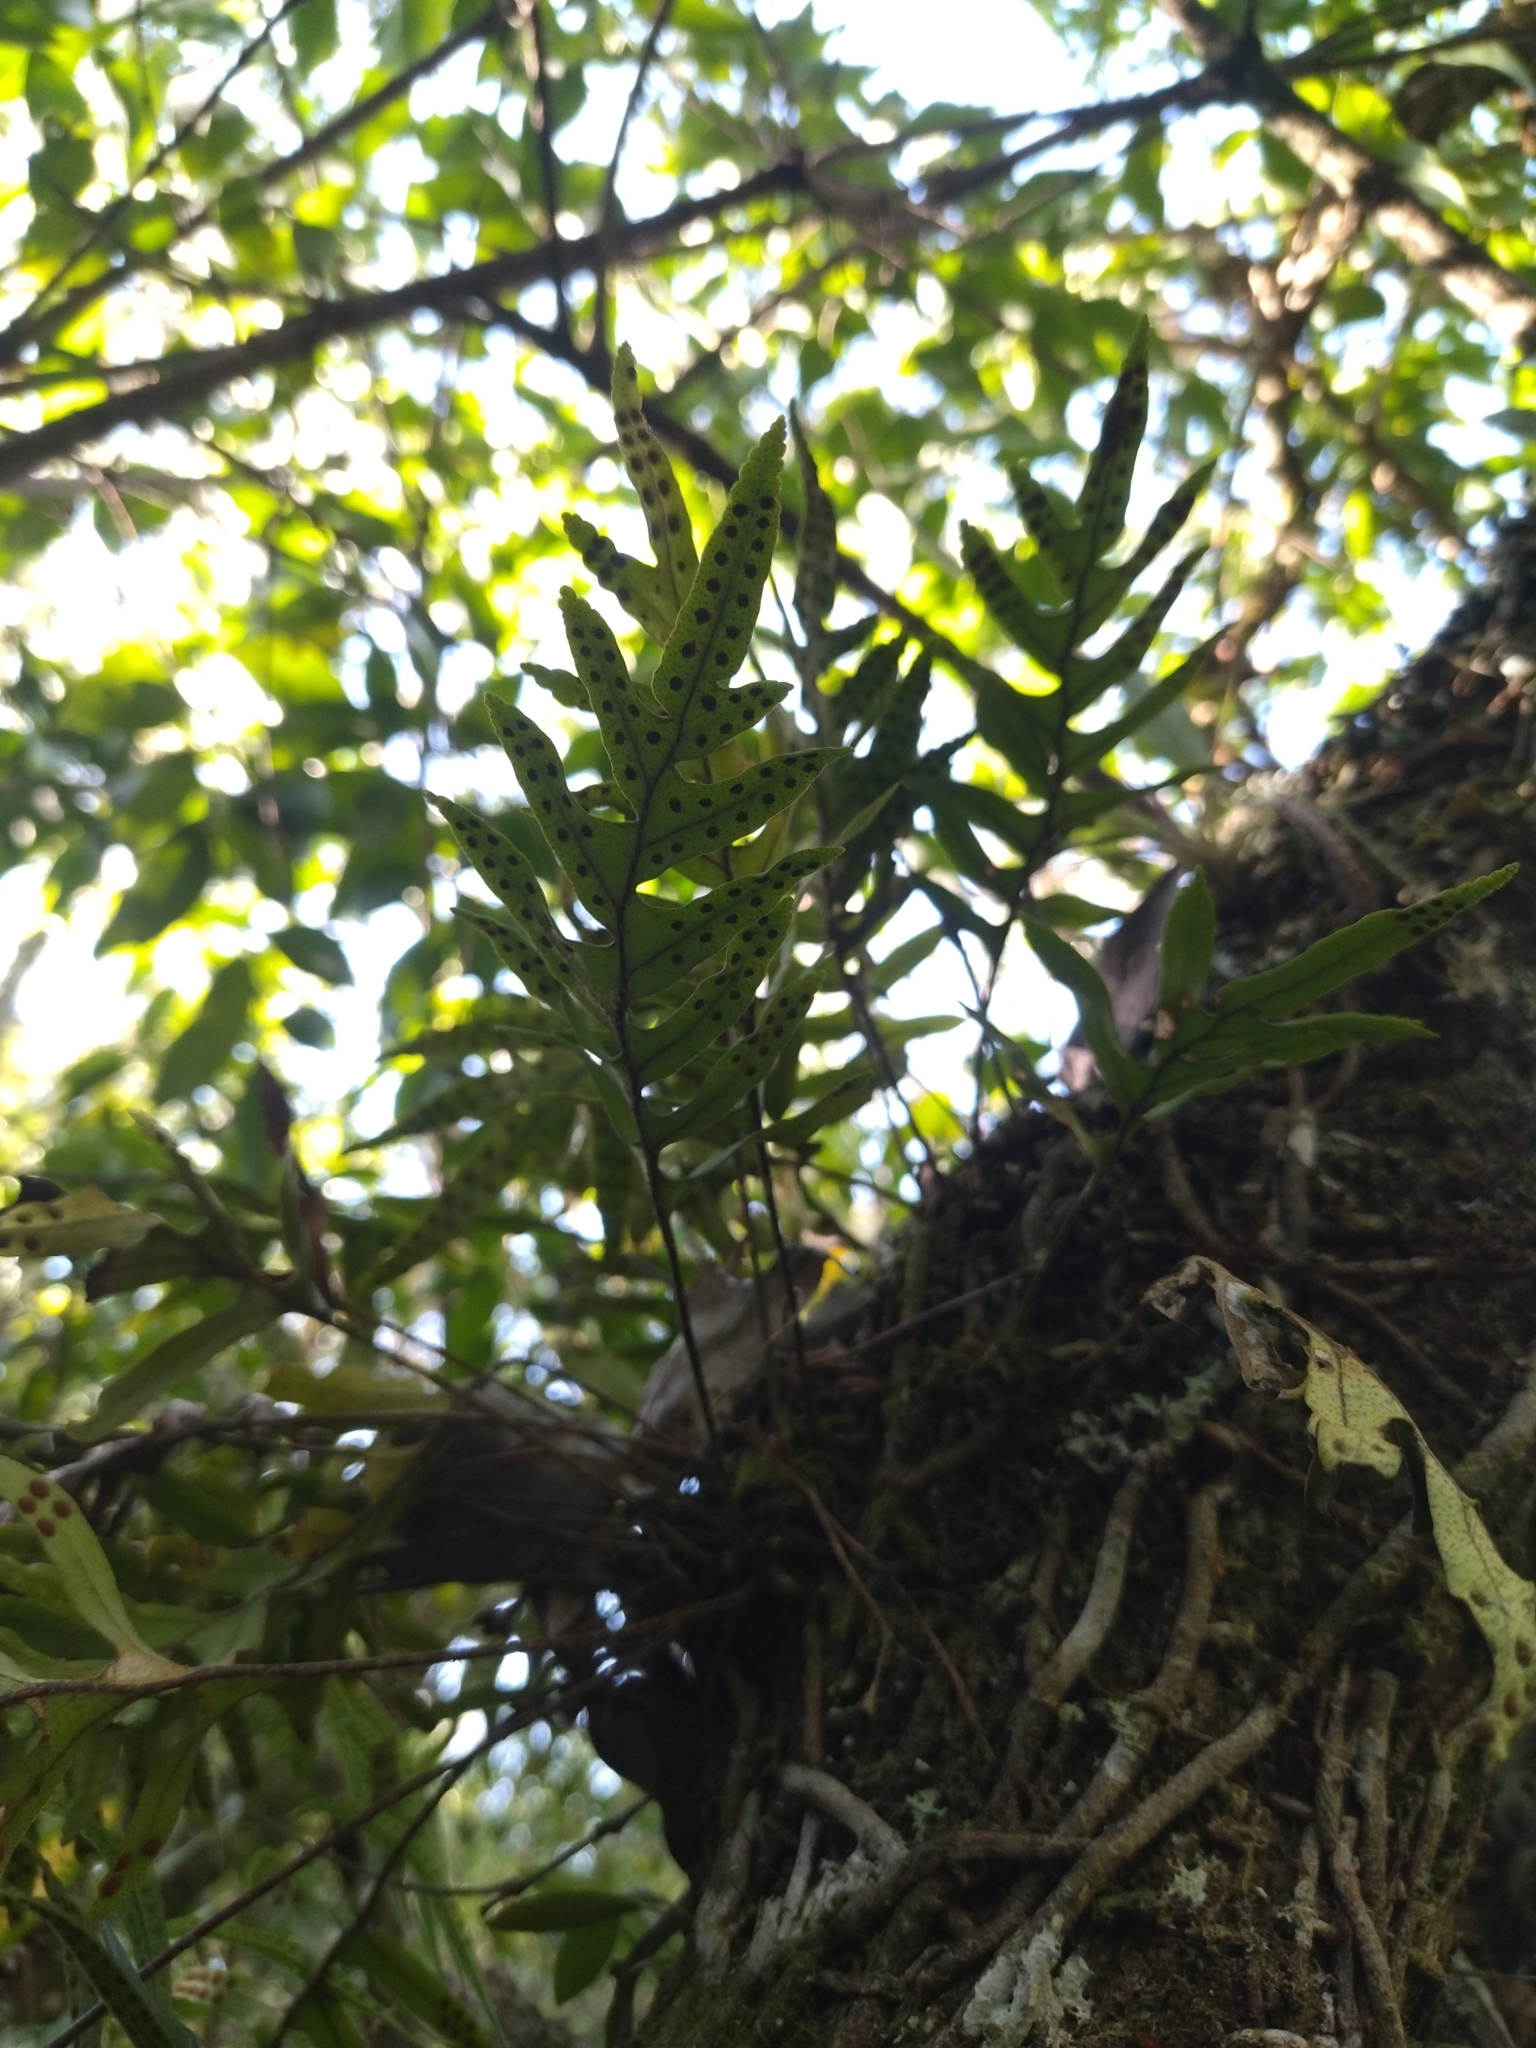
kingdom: Plantae
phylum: Tracheophyta
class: Polypodiopsida
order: Polypodiales
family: Polypodiaceae
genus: Pleopeltis
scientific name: Pleopeltis pleopeltifolia
